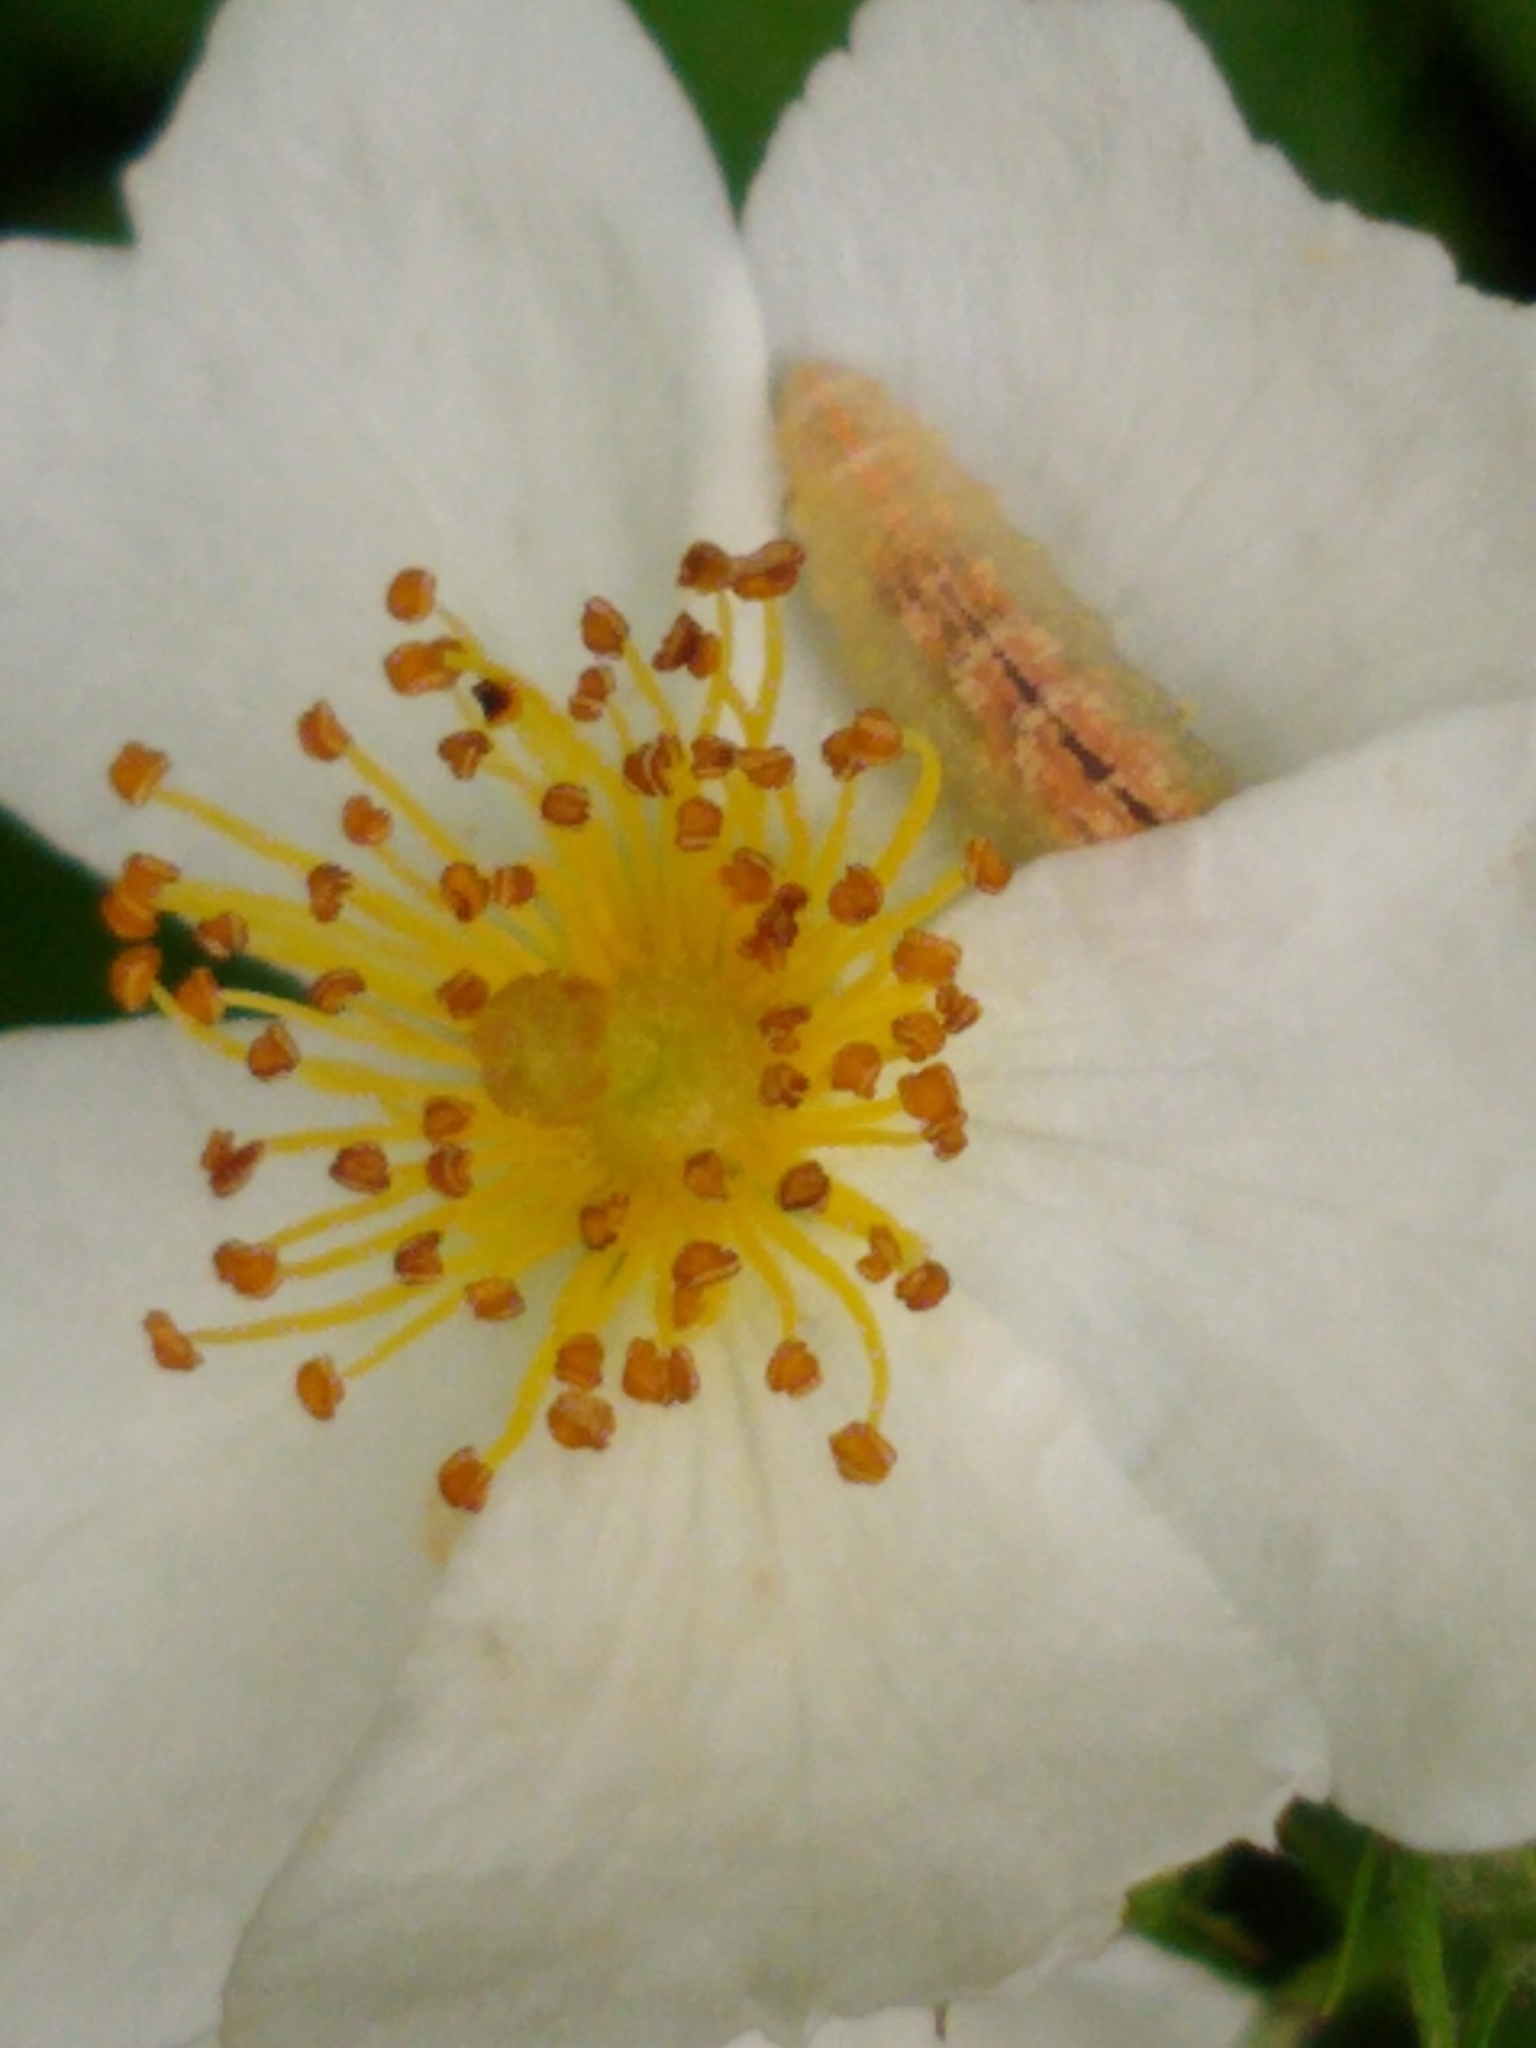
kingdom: Animalia
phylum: Arthropoda
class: Insecta
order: Diptera
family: Syrphidae
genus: Syrphus
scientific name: Syrphus
